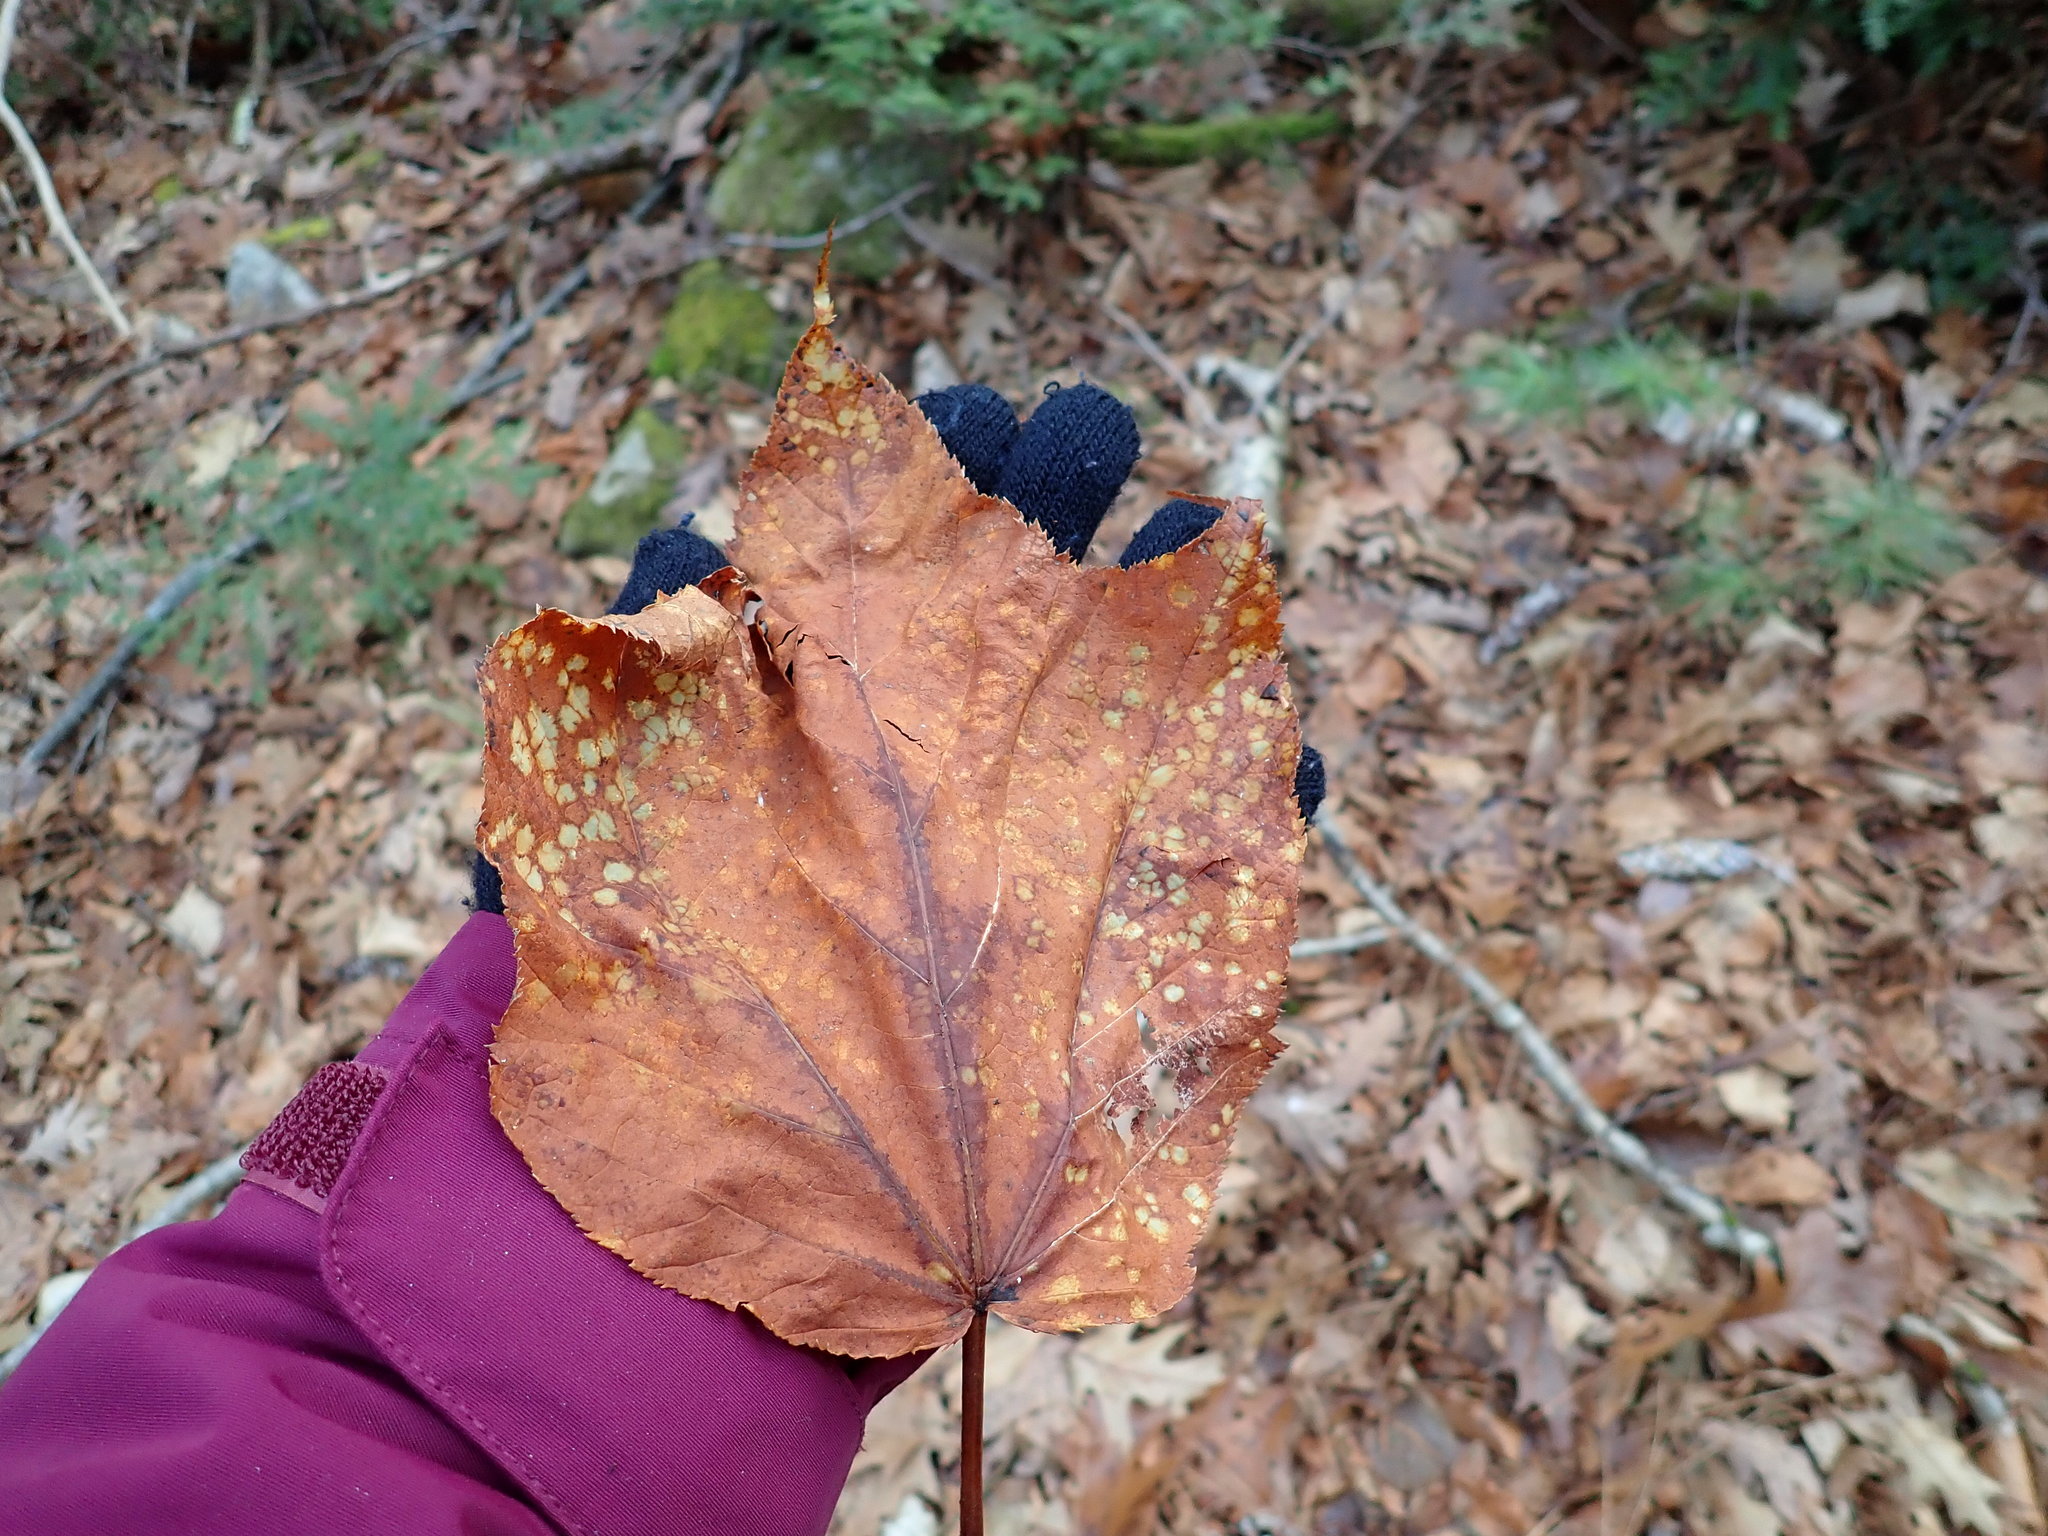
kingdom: Plantae
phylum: Tracheophyta
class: Magnoliopsida
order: Sapindales
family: Sapindaceae
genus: Acer
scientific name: Acer pensylvanicum
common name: Moosewood
